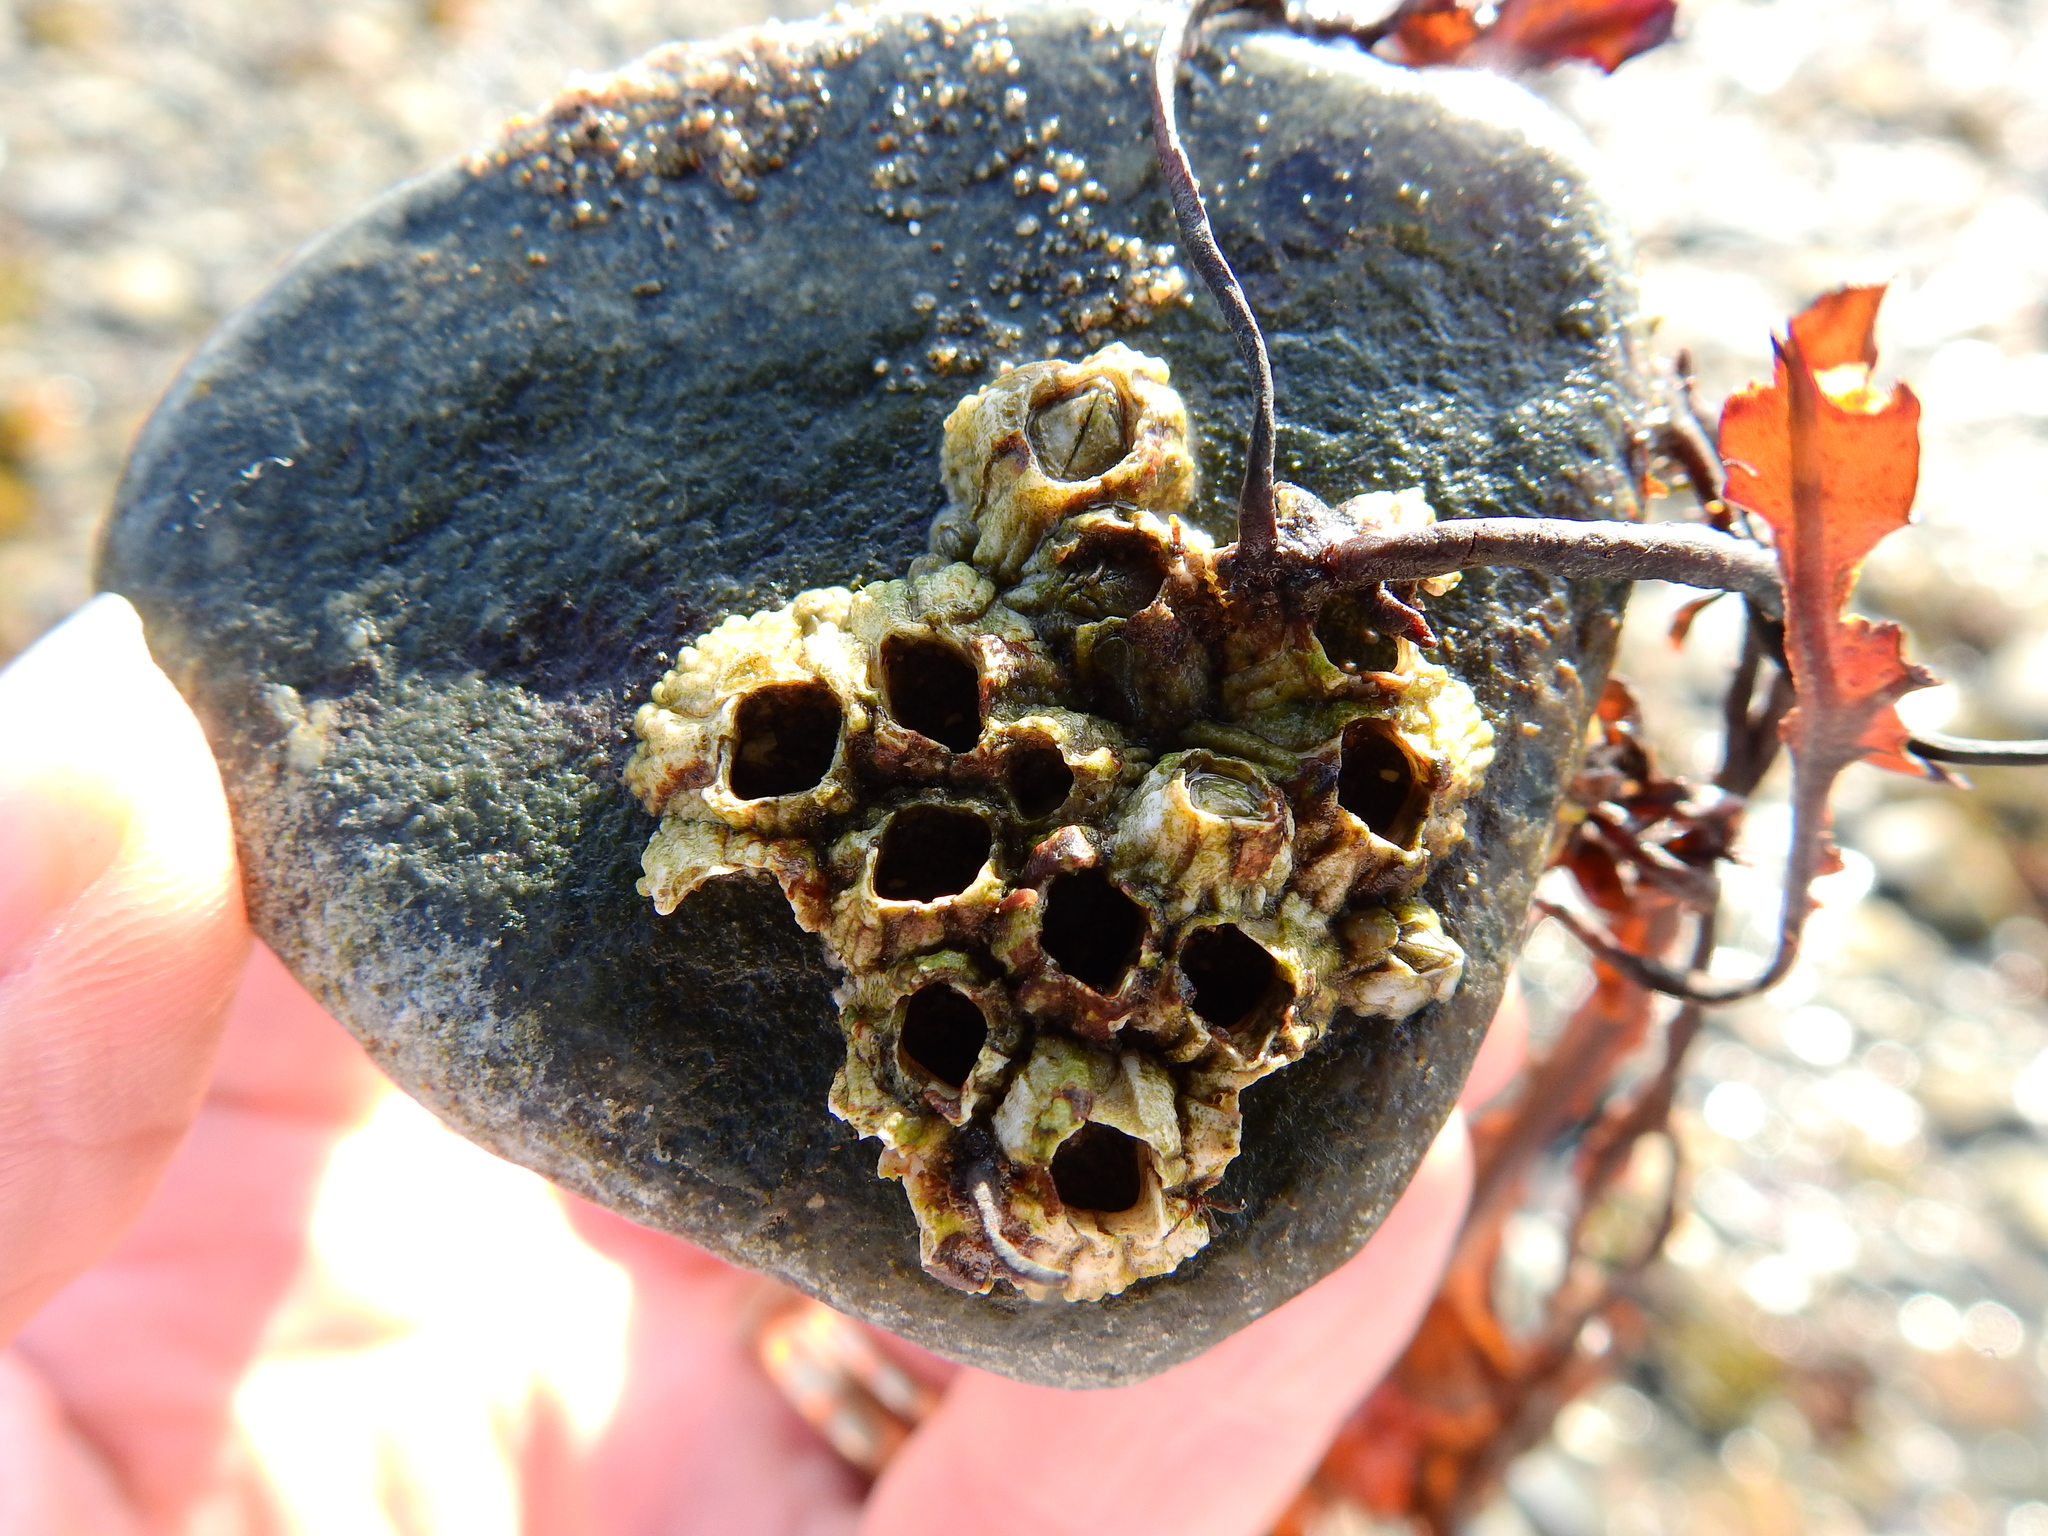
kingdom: Animalia
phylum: Arthropoda
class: Maxillopoda
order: Sessilia
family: Archaeobalanidae
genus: Semibalanus
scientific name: Semibalanus balanoides
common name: Acorn barnacle
